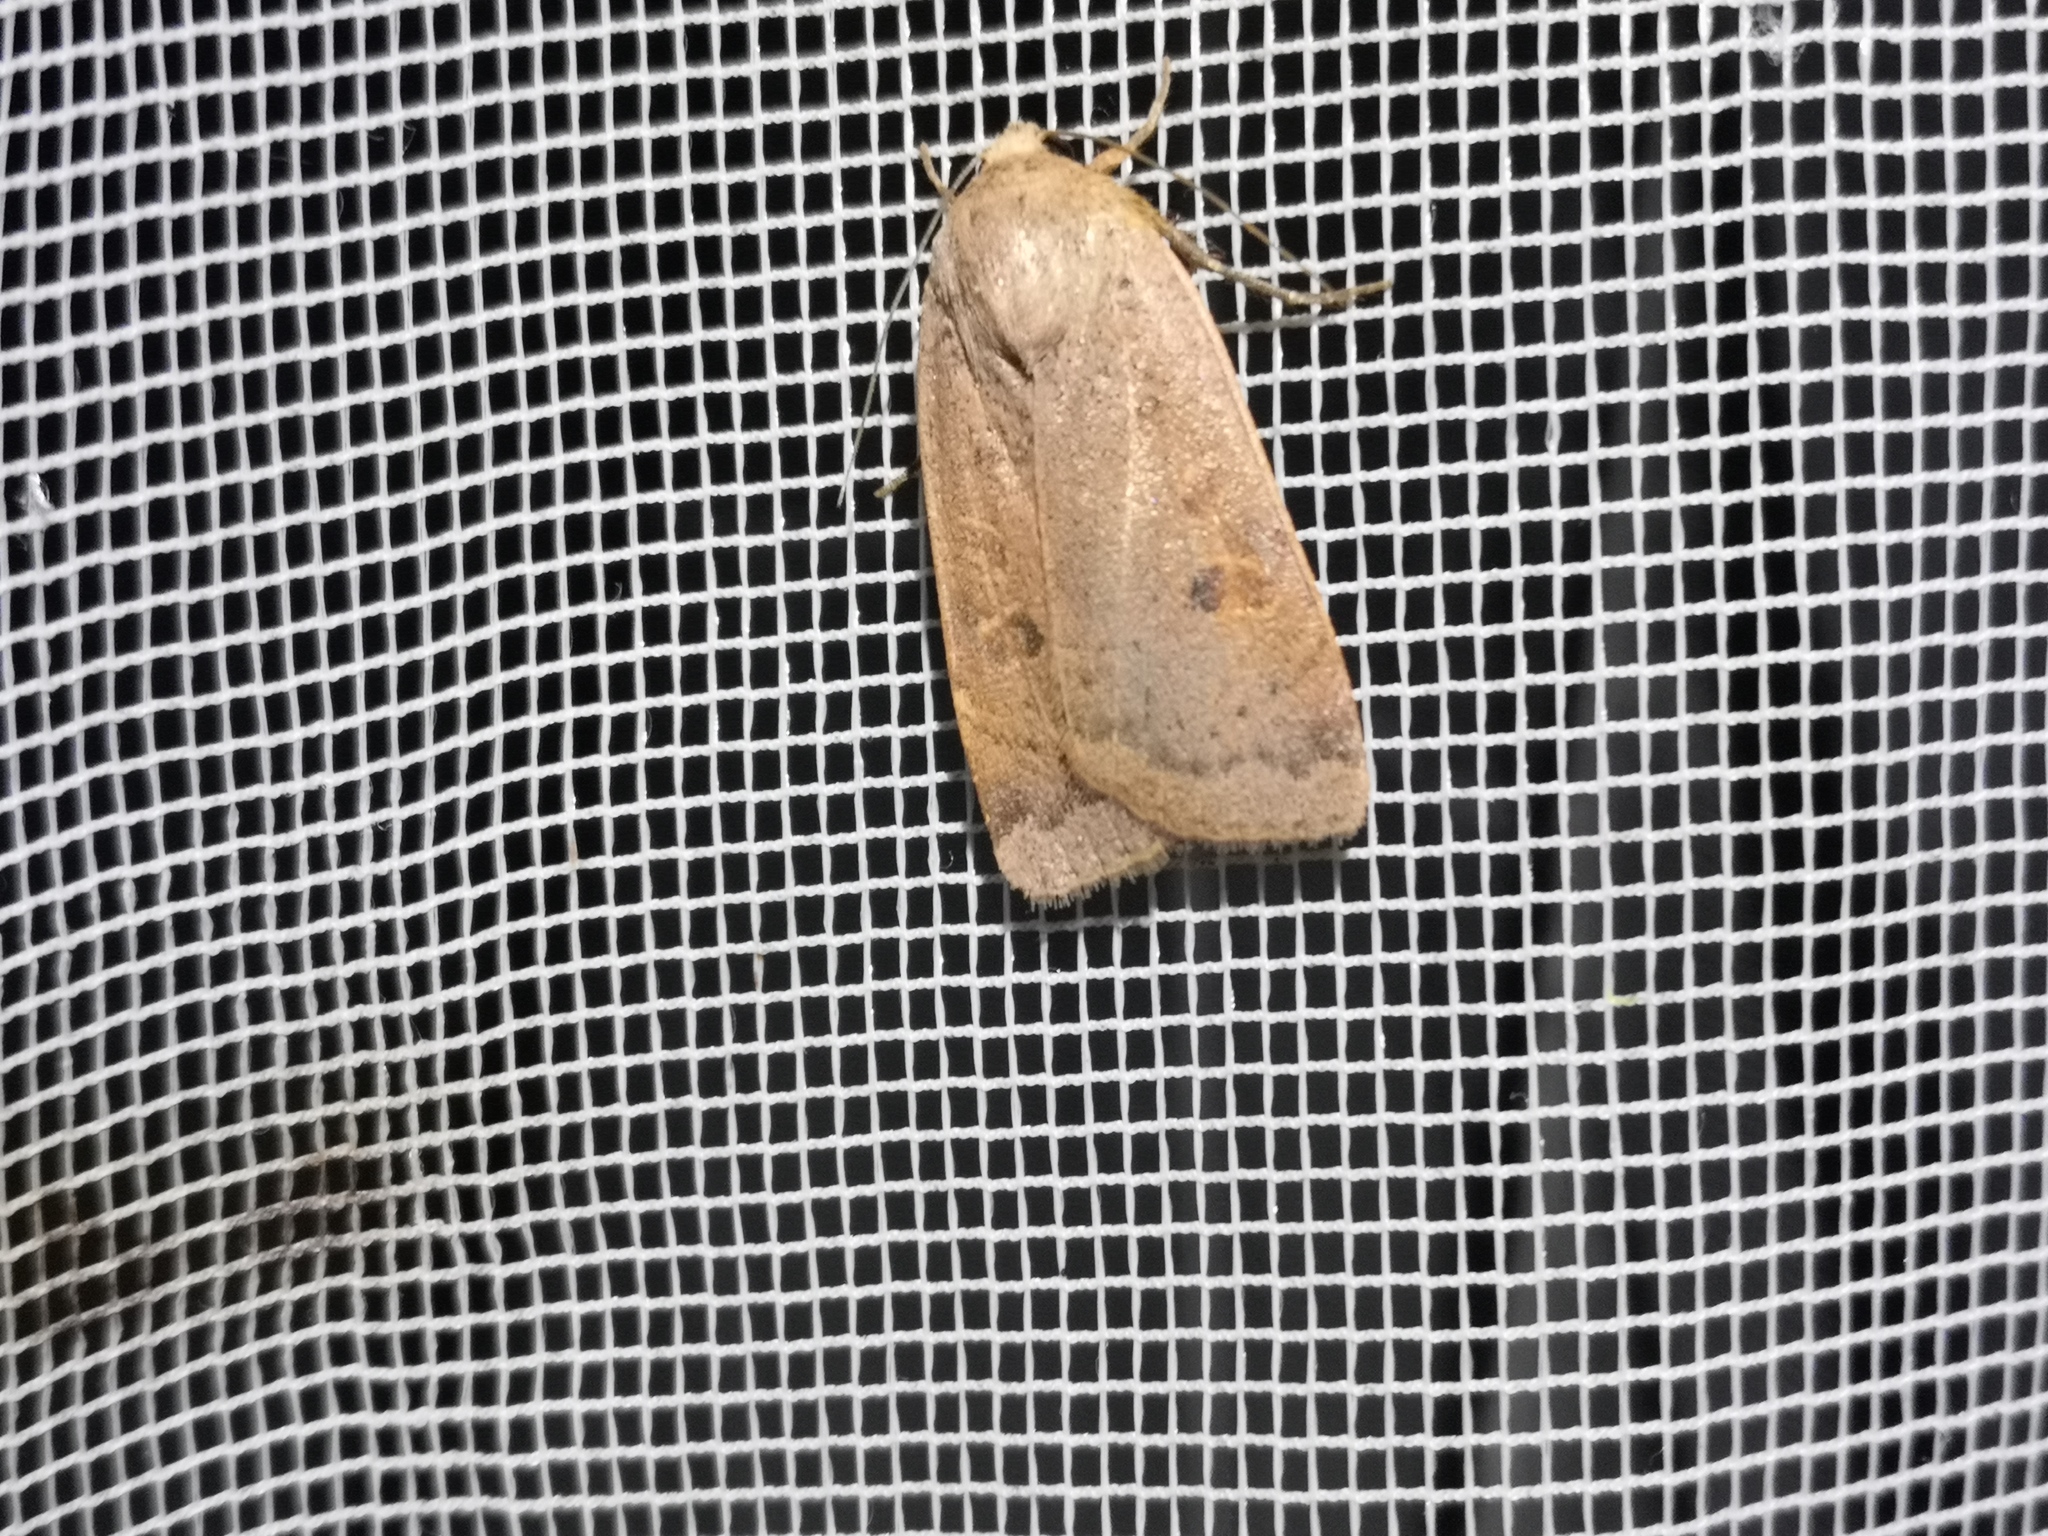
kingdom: Animalia
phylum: Arthropoda
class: Insecta
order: Lepidoptera
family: Noctuidae
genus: Noctua
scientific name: Noctua comes
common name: Lesser yellow underwing
